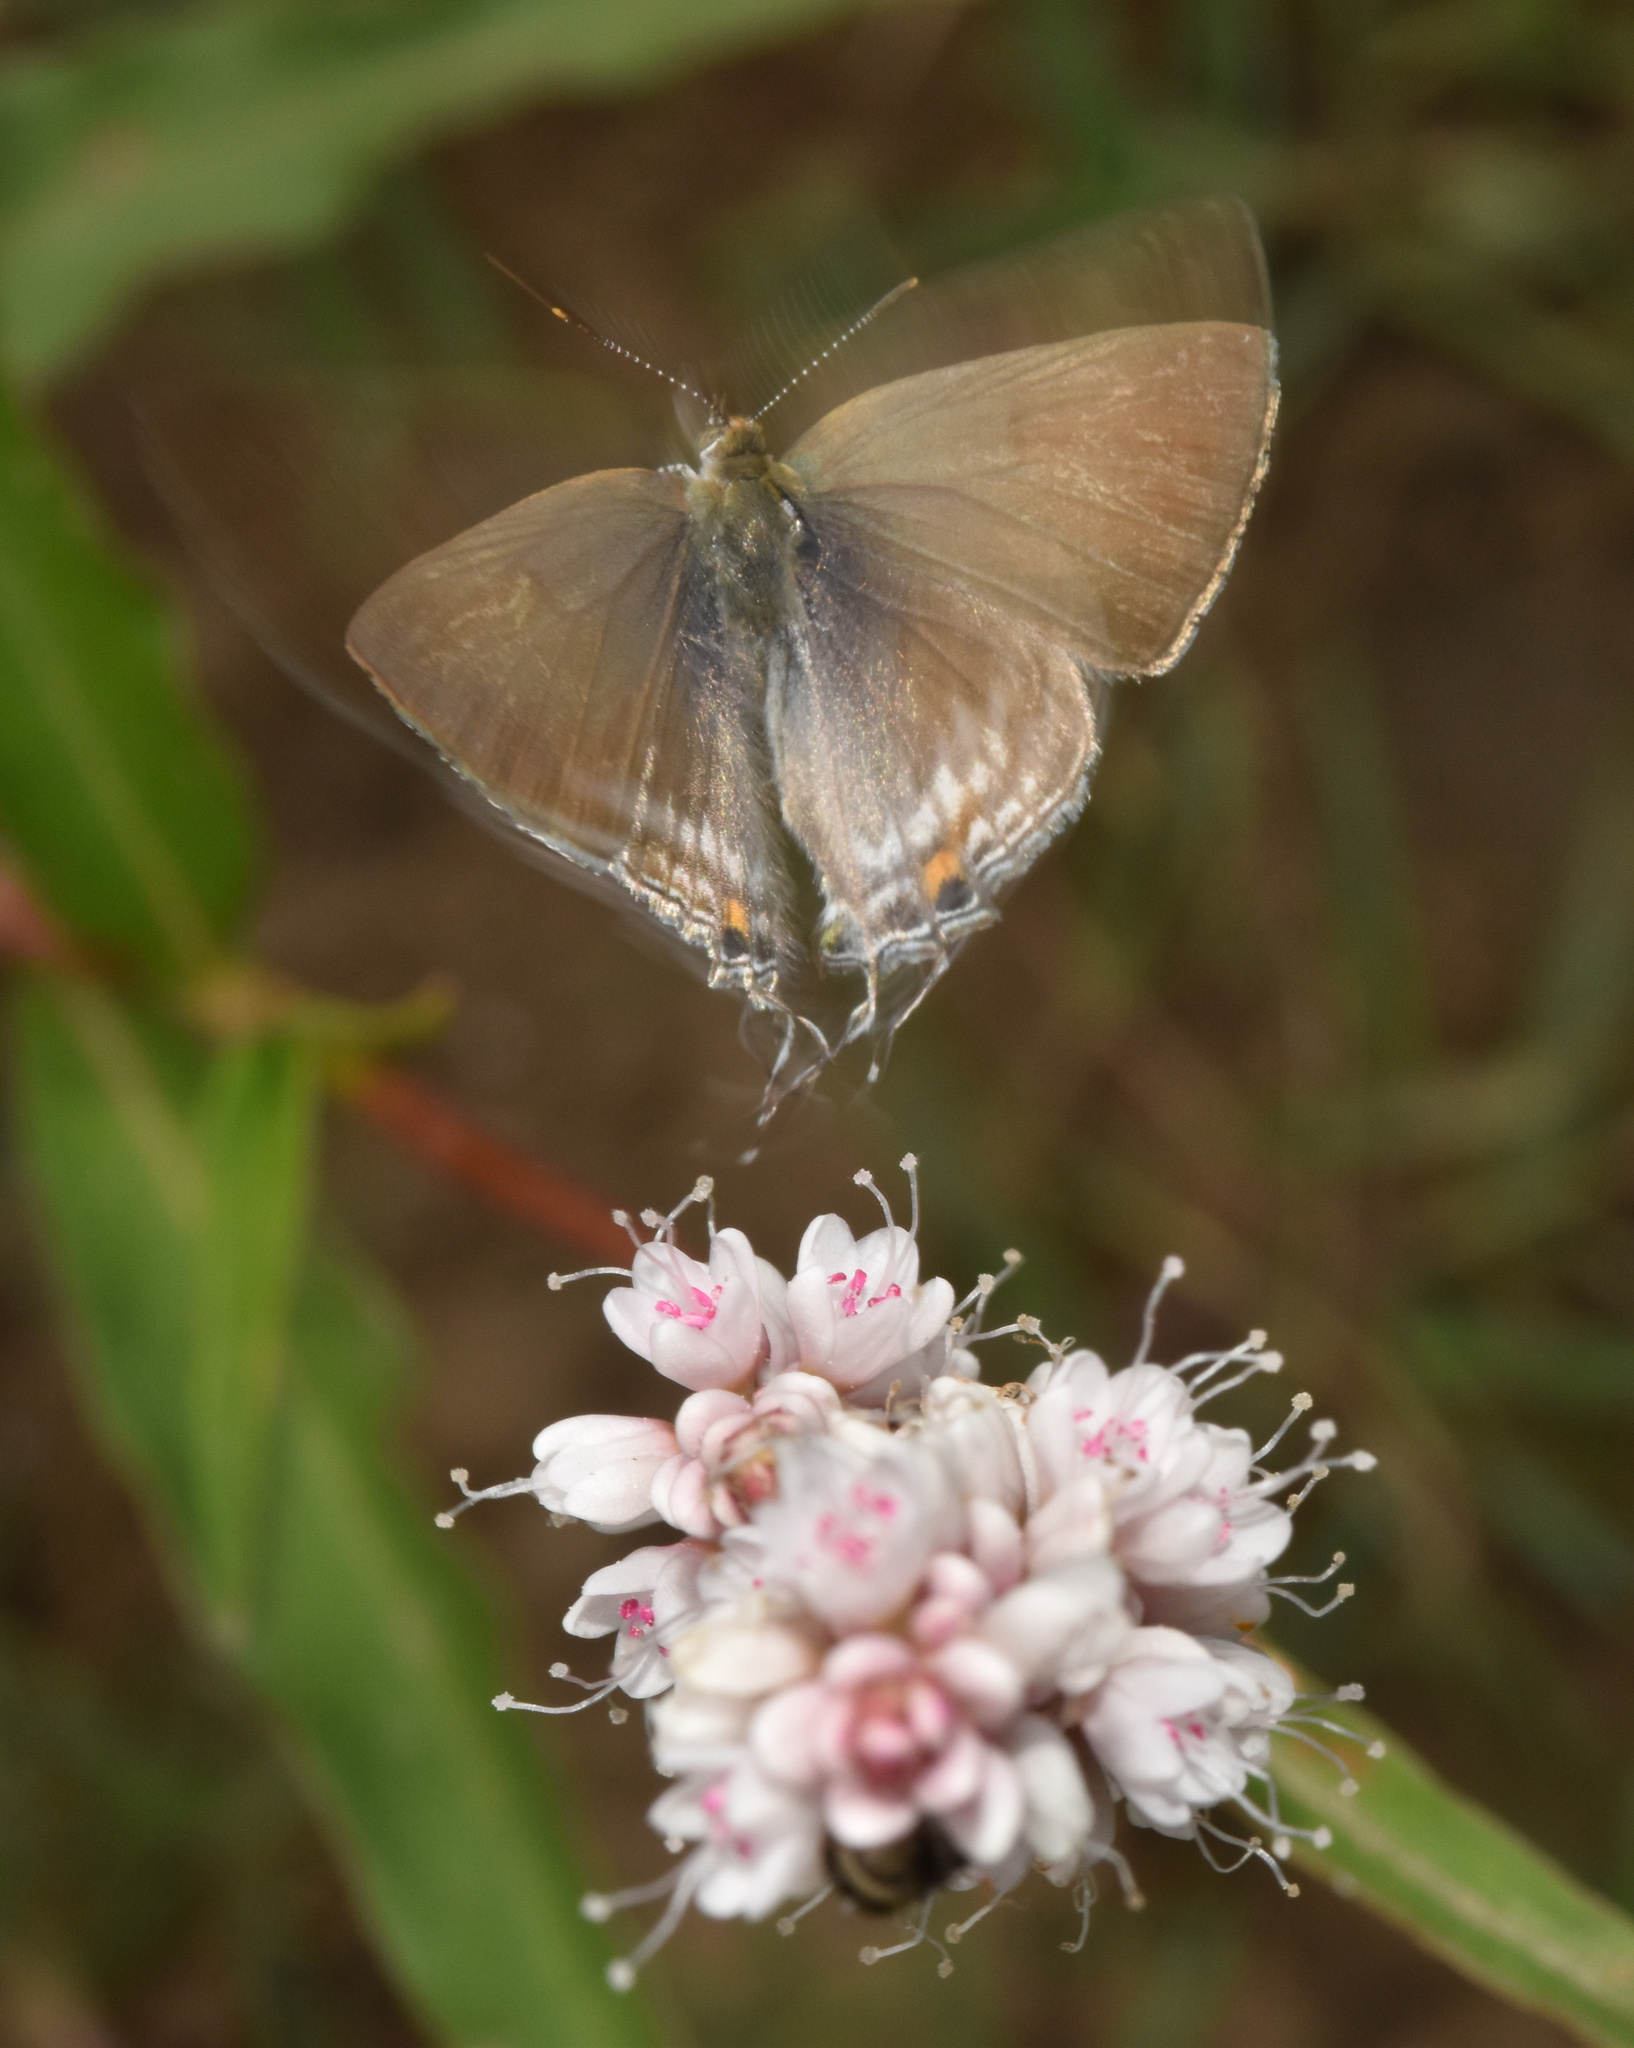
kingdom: Animalia
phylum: Arthropoda
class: Insecta
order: Lepidoptera
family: Lycaenidae
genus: Hypolycaena
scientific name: Hypolycaena philippus
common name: Common hairstreak
